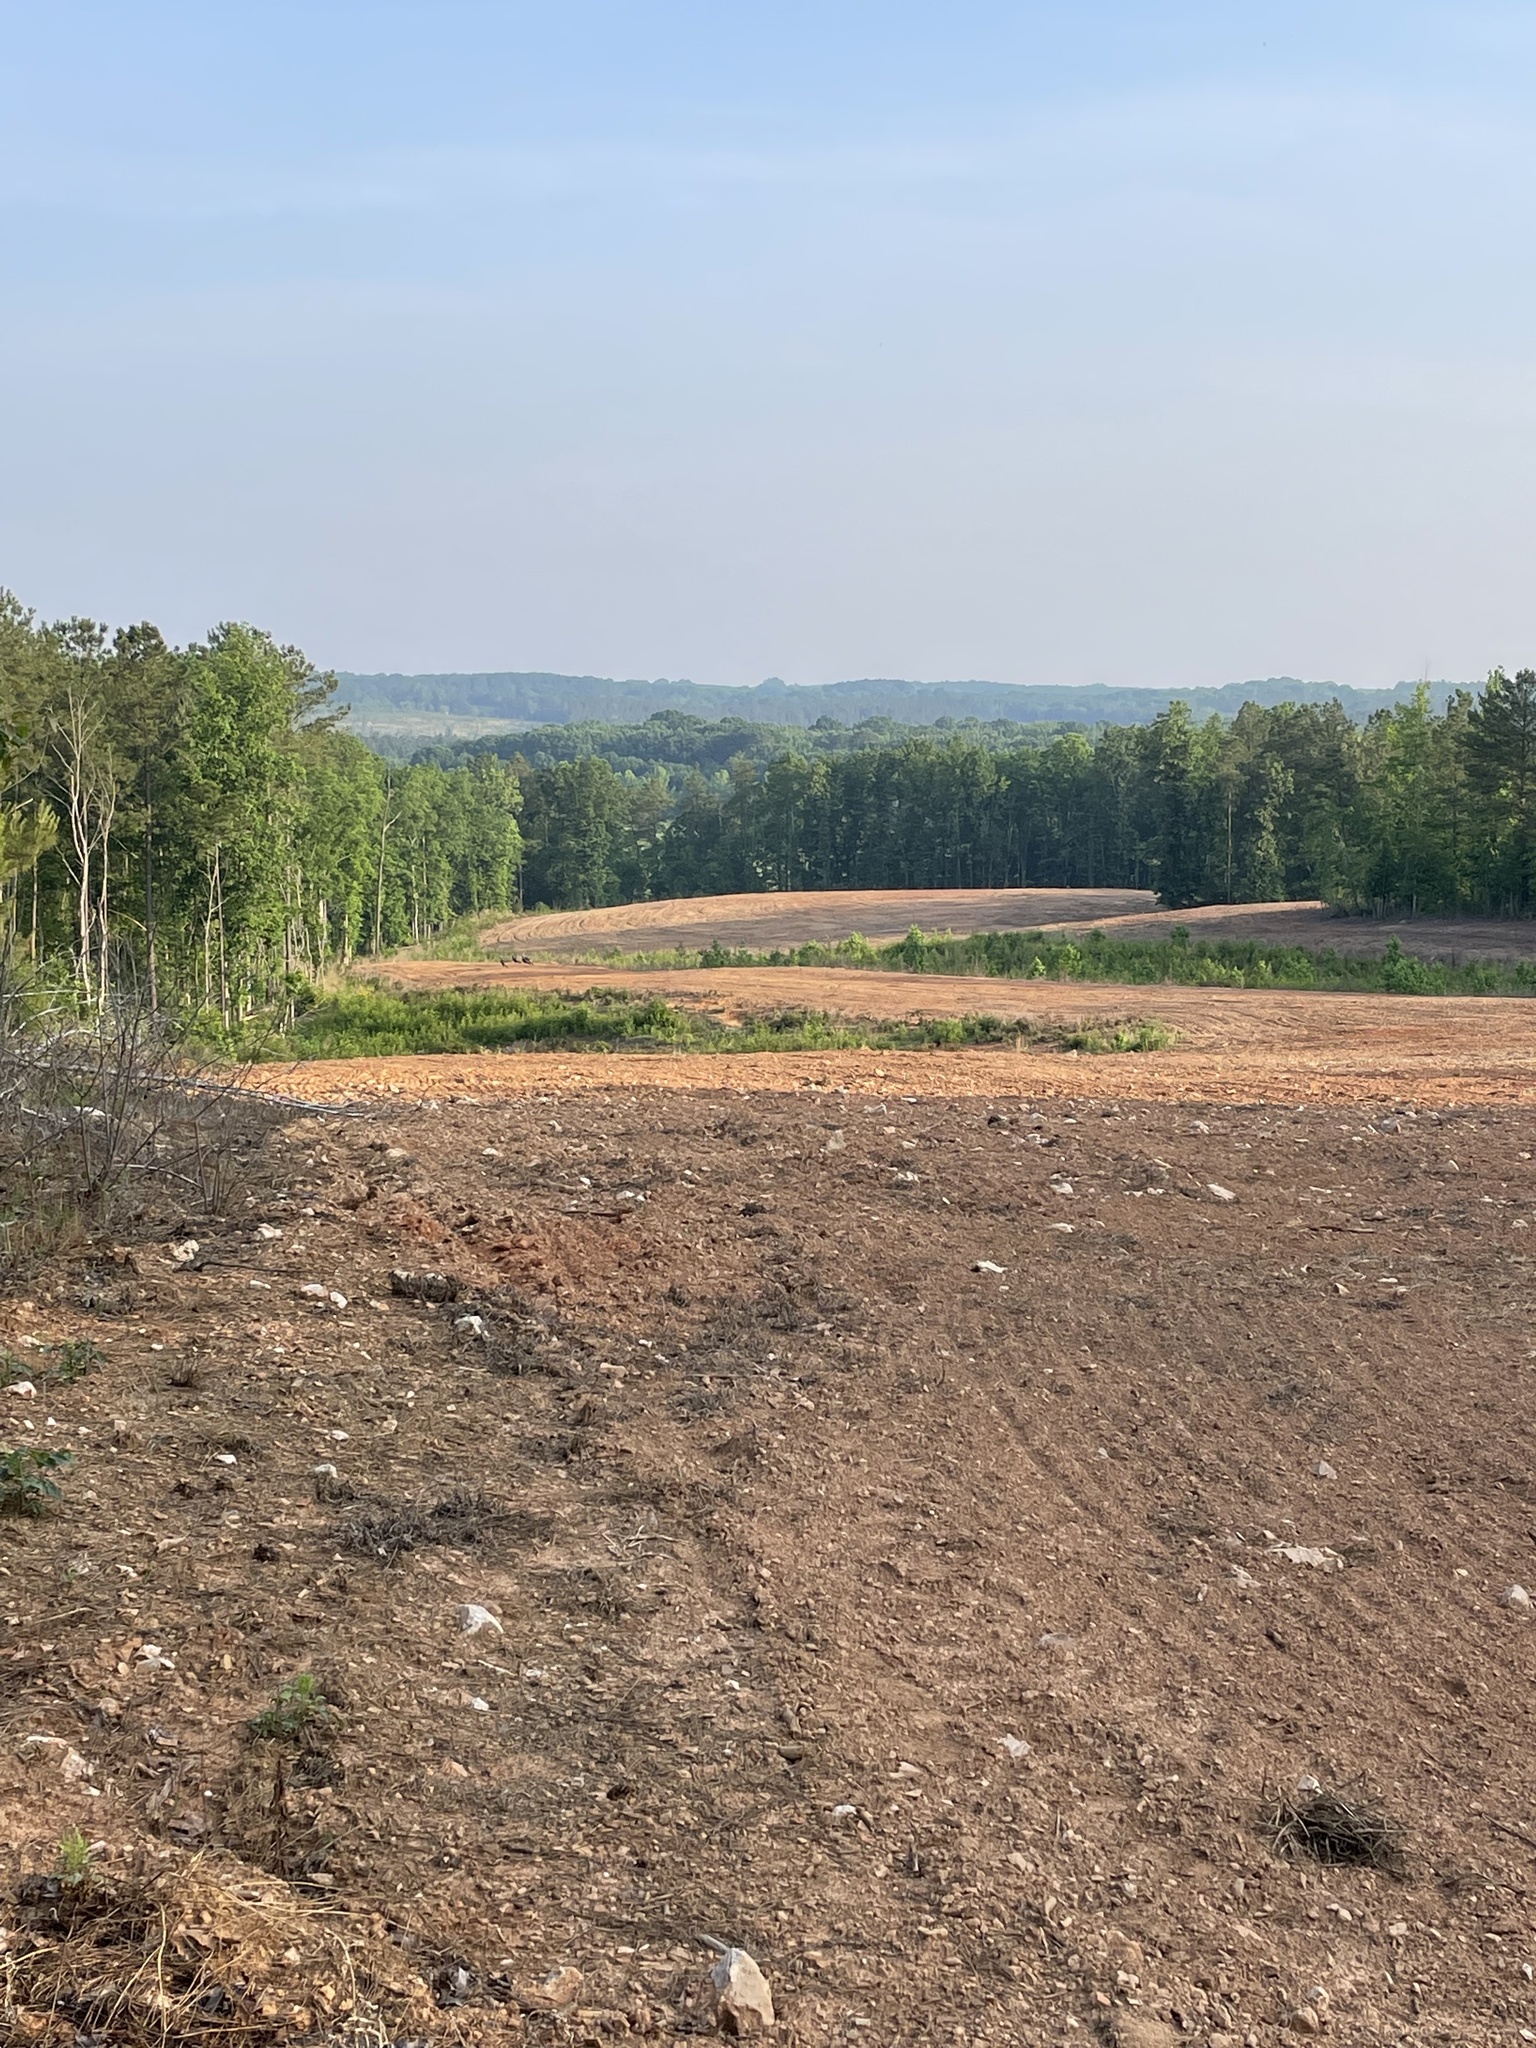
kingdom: Plantae
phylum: Tracheophyta
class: Magnoliopsida
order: Asterales
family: Asteraceae
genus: Pseudognaphalium
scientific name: Pseudognaphalium obtusifolium
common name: Eastern rabbit-tobacco
